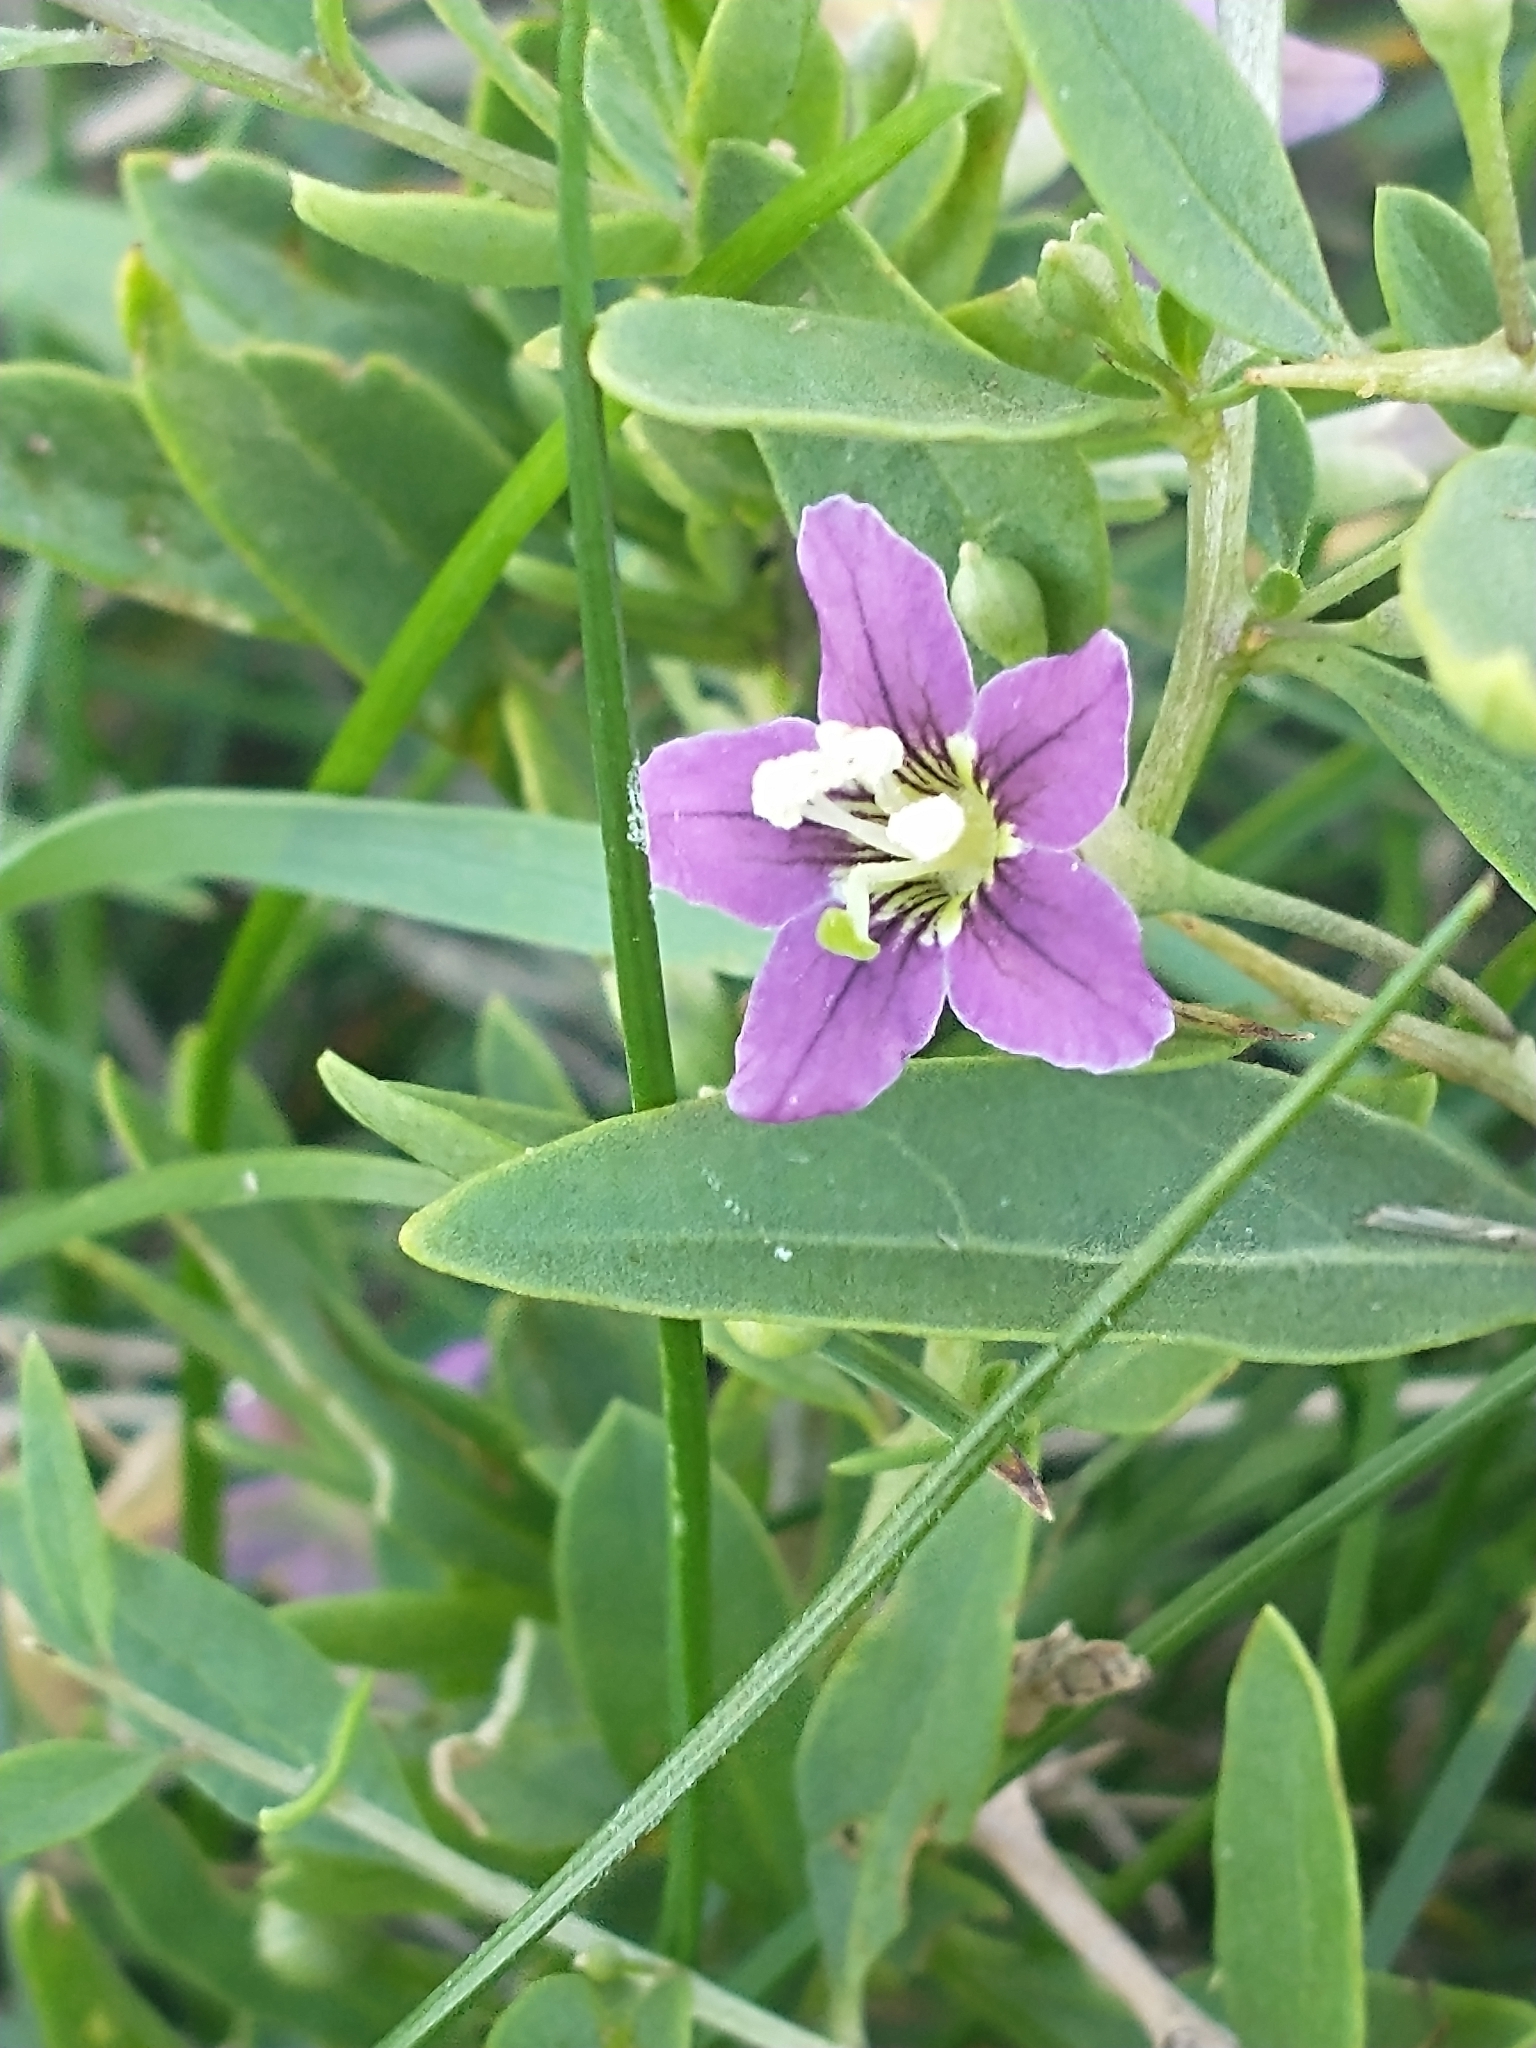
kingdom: Plantae
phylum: Tracheophyta
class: Magnoliopsida
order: Solanales
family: Solanaceae
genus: Lycium
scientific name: Lycium barbarum
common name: Duke of argyll's teaplant
